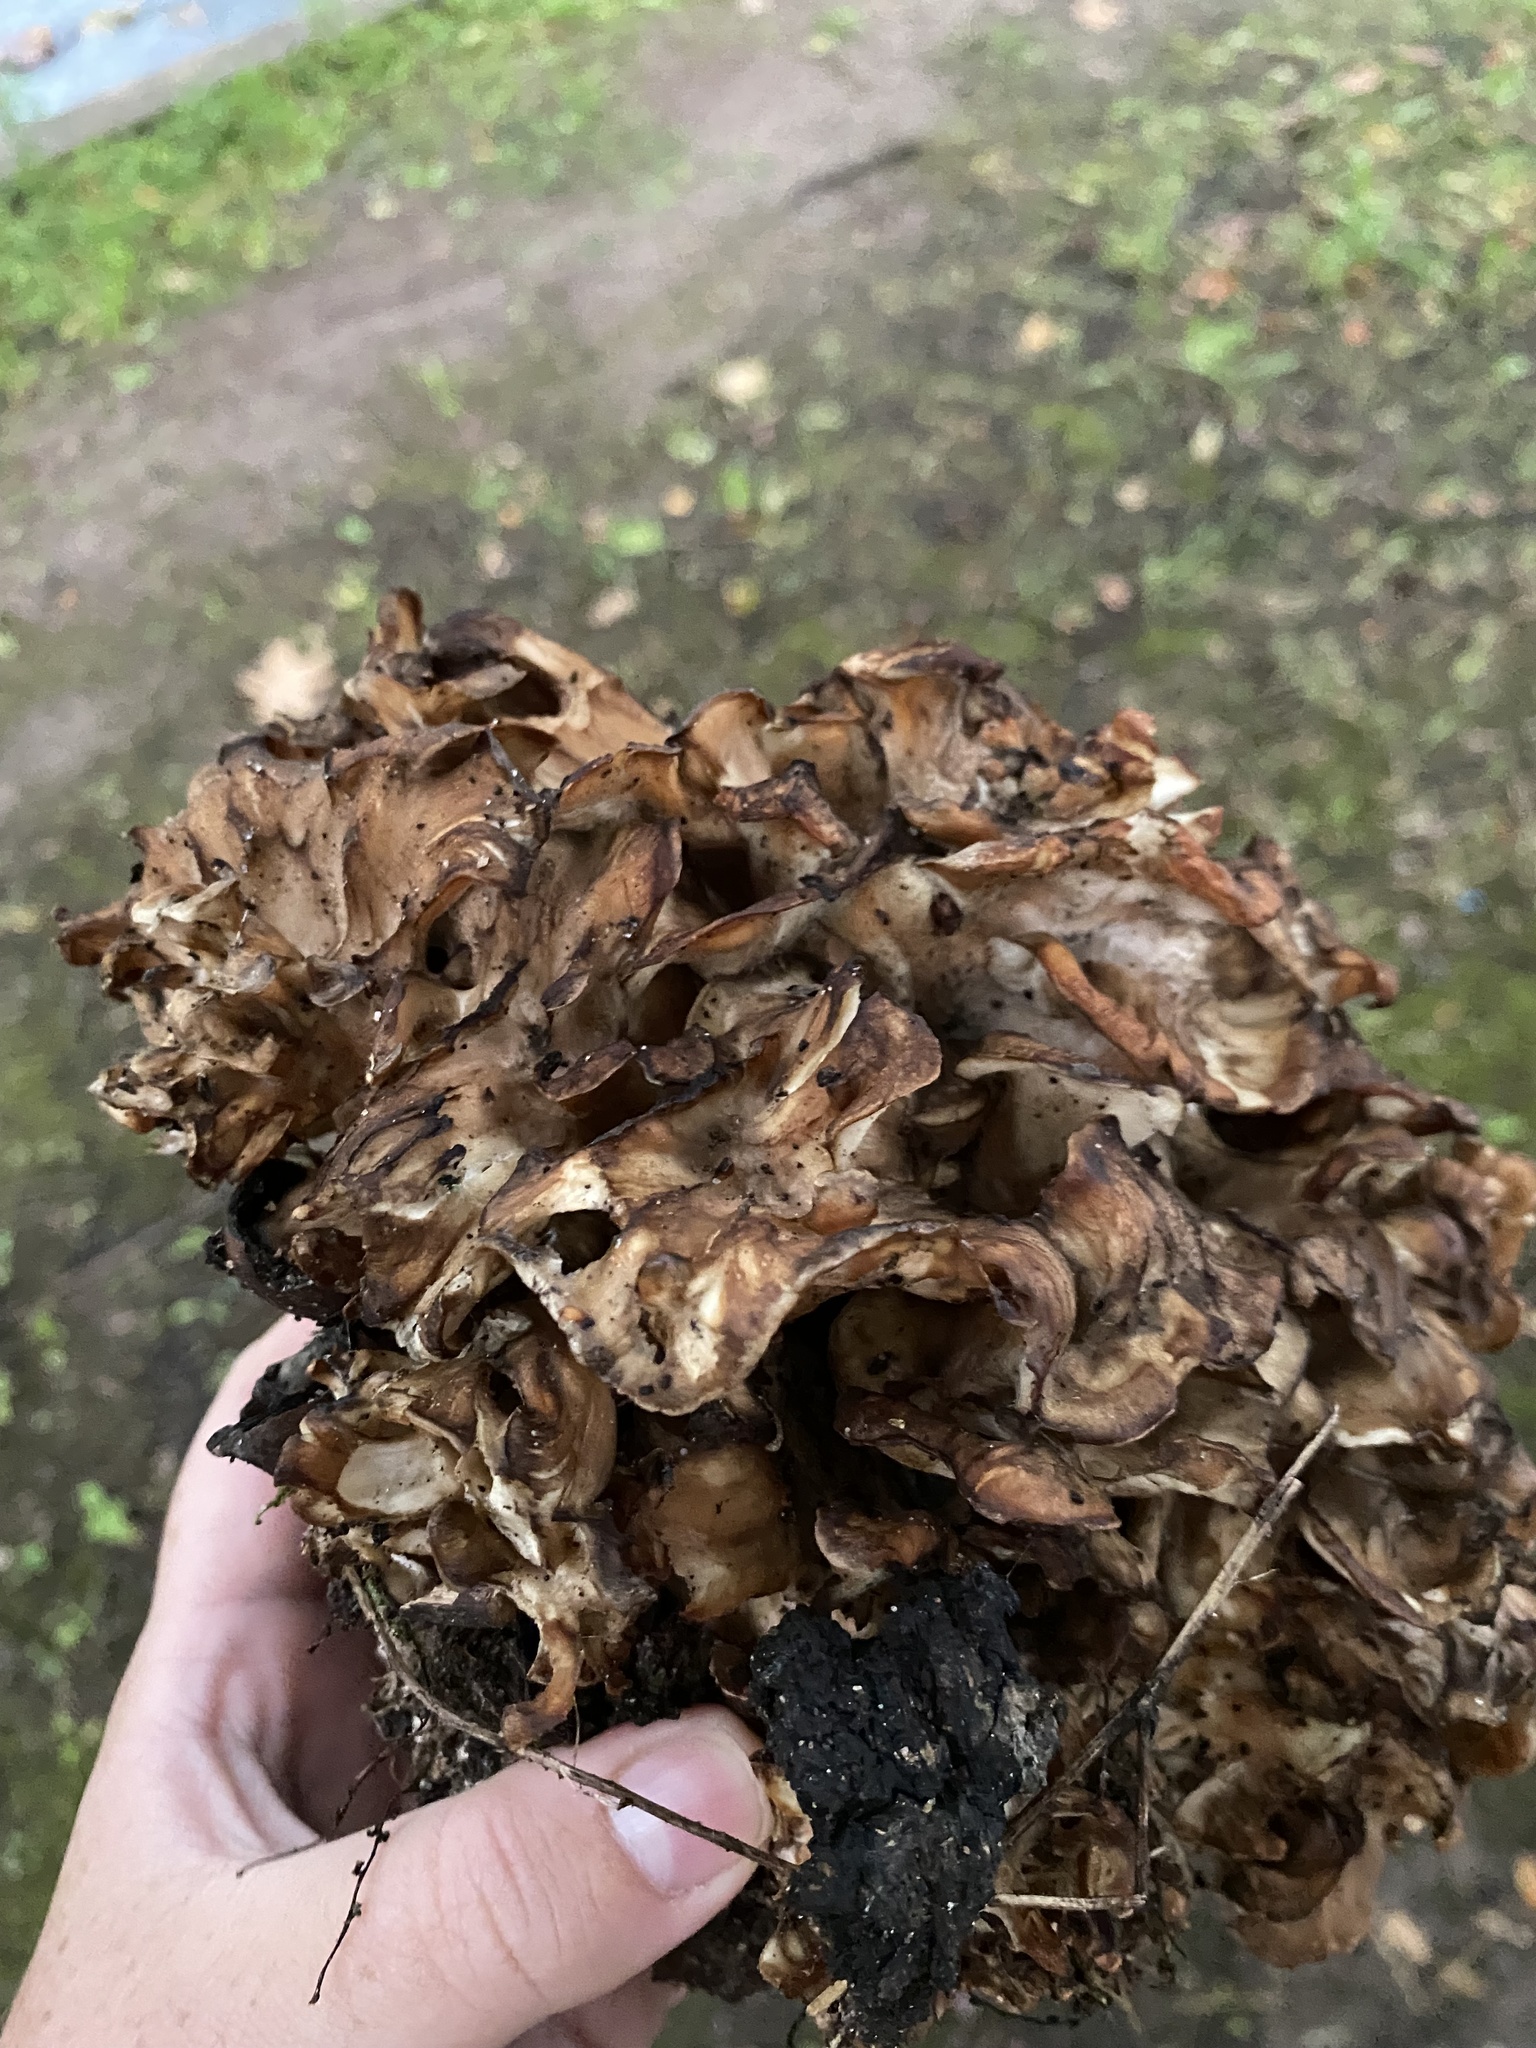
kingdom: Fungi
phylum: Basidiomycota
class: Agaricomycetes
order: Polyporales
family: Grifolaceae
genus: Grifola
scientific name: Grifola frondosa
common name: Hen of the woods
